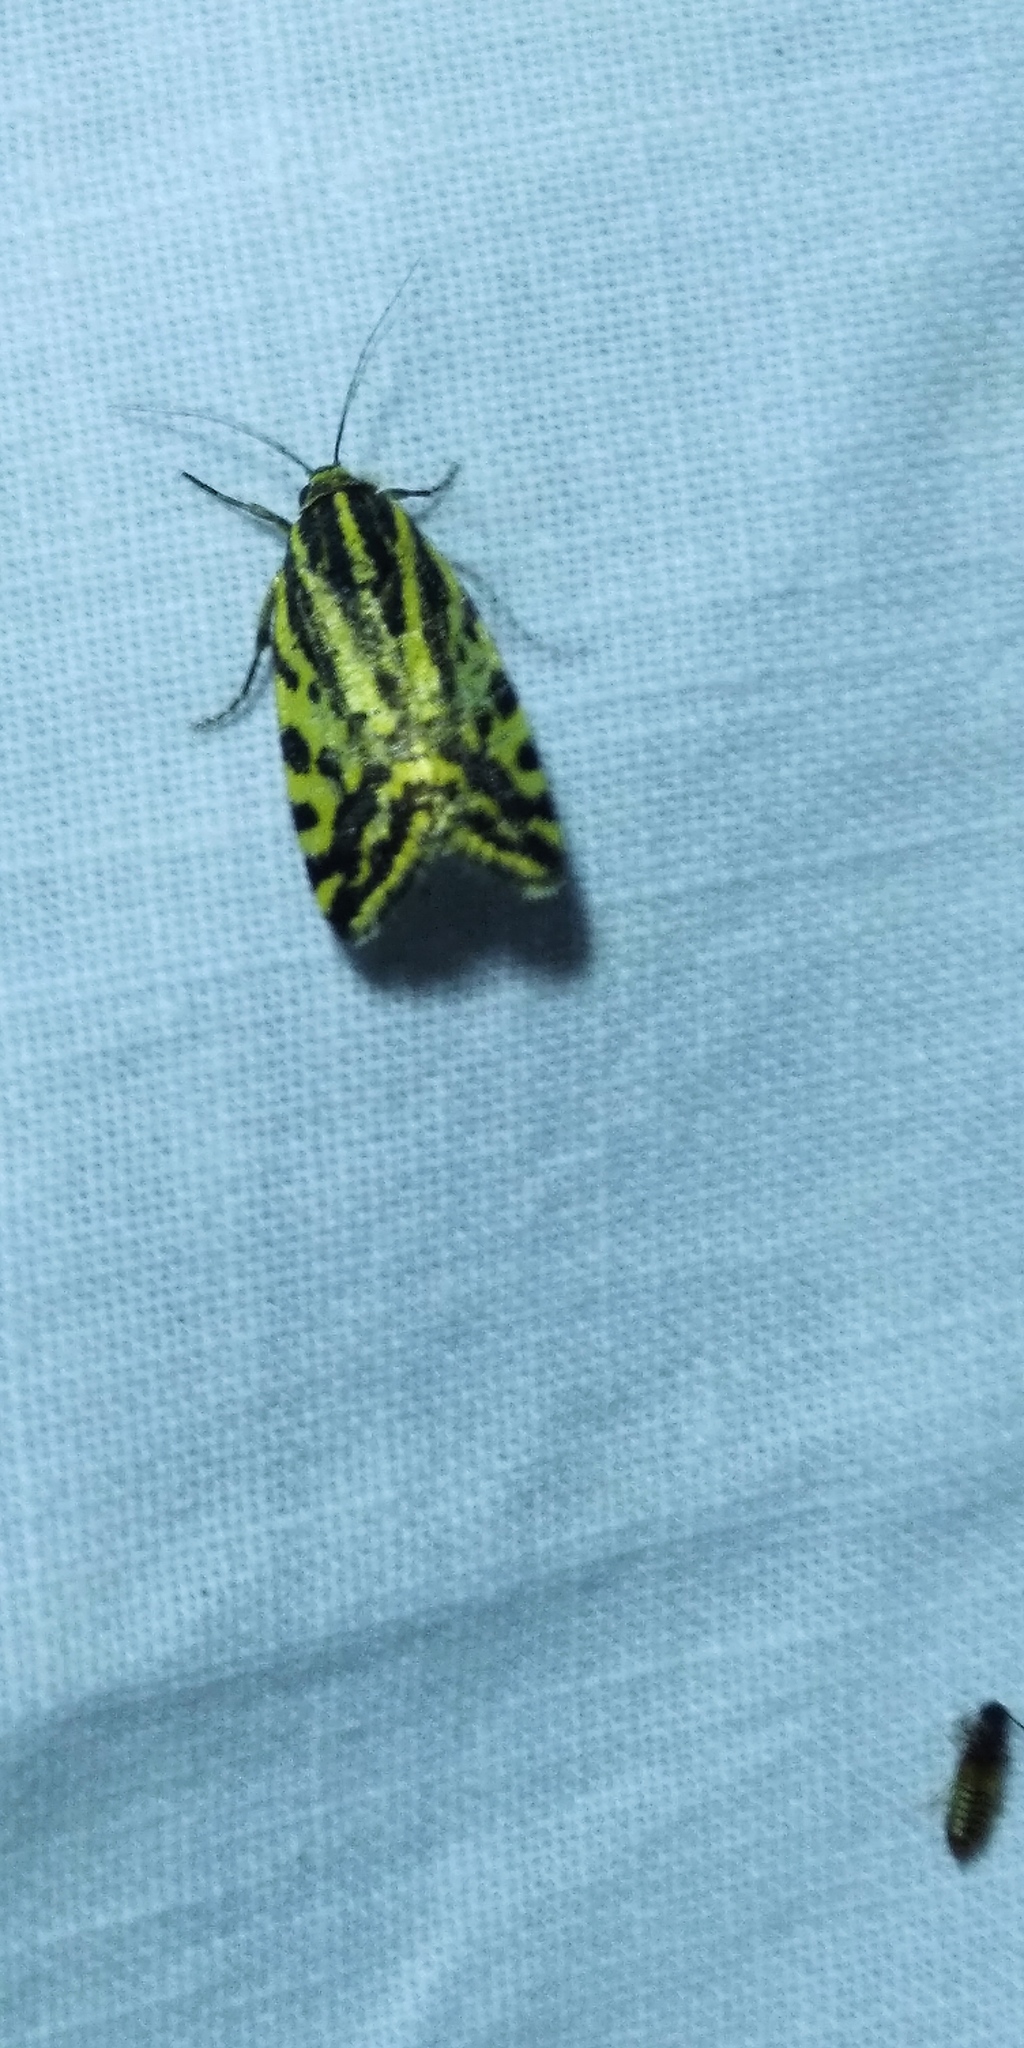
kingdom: Animalia
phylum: Arthropoda
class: Insecta
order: Lepidoptera
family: Noctuidae
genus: Acontia
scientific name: Acontia trabealis
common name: Spotted sulphur
